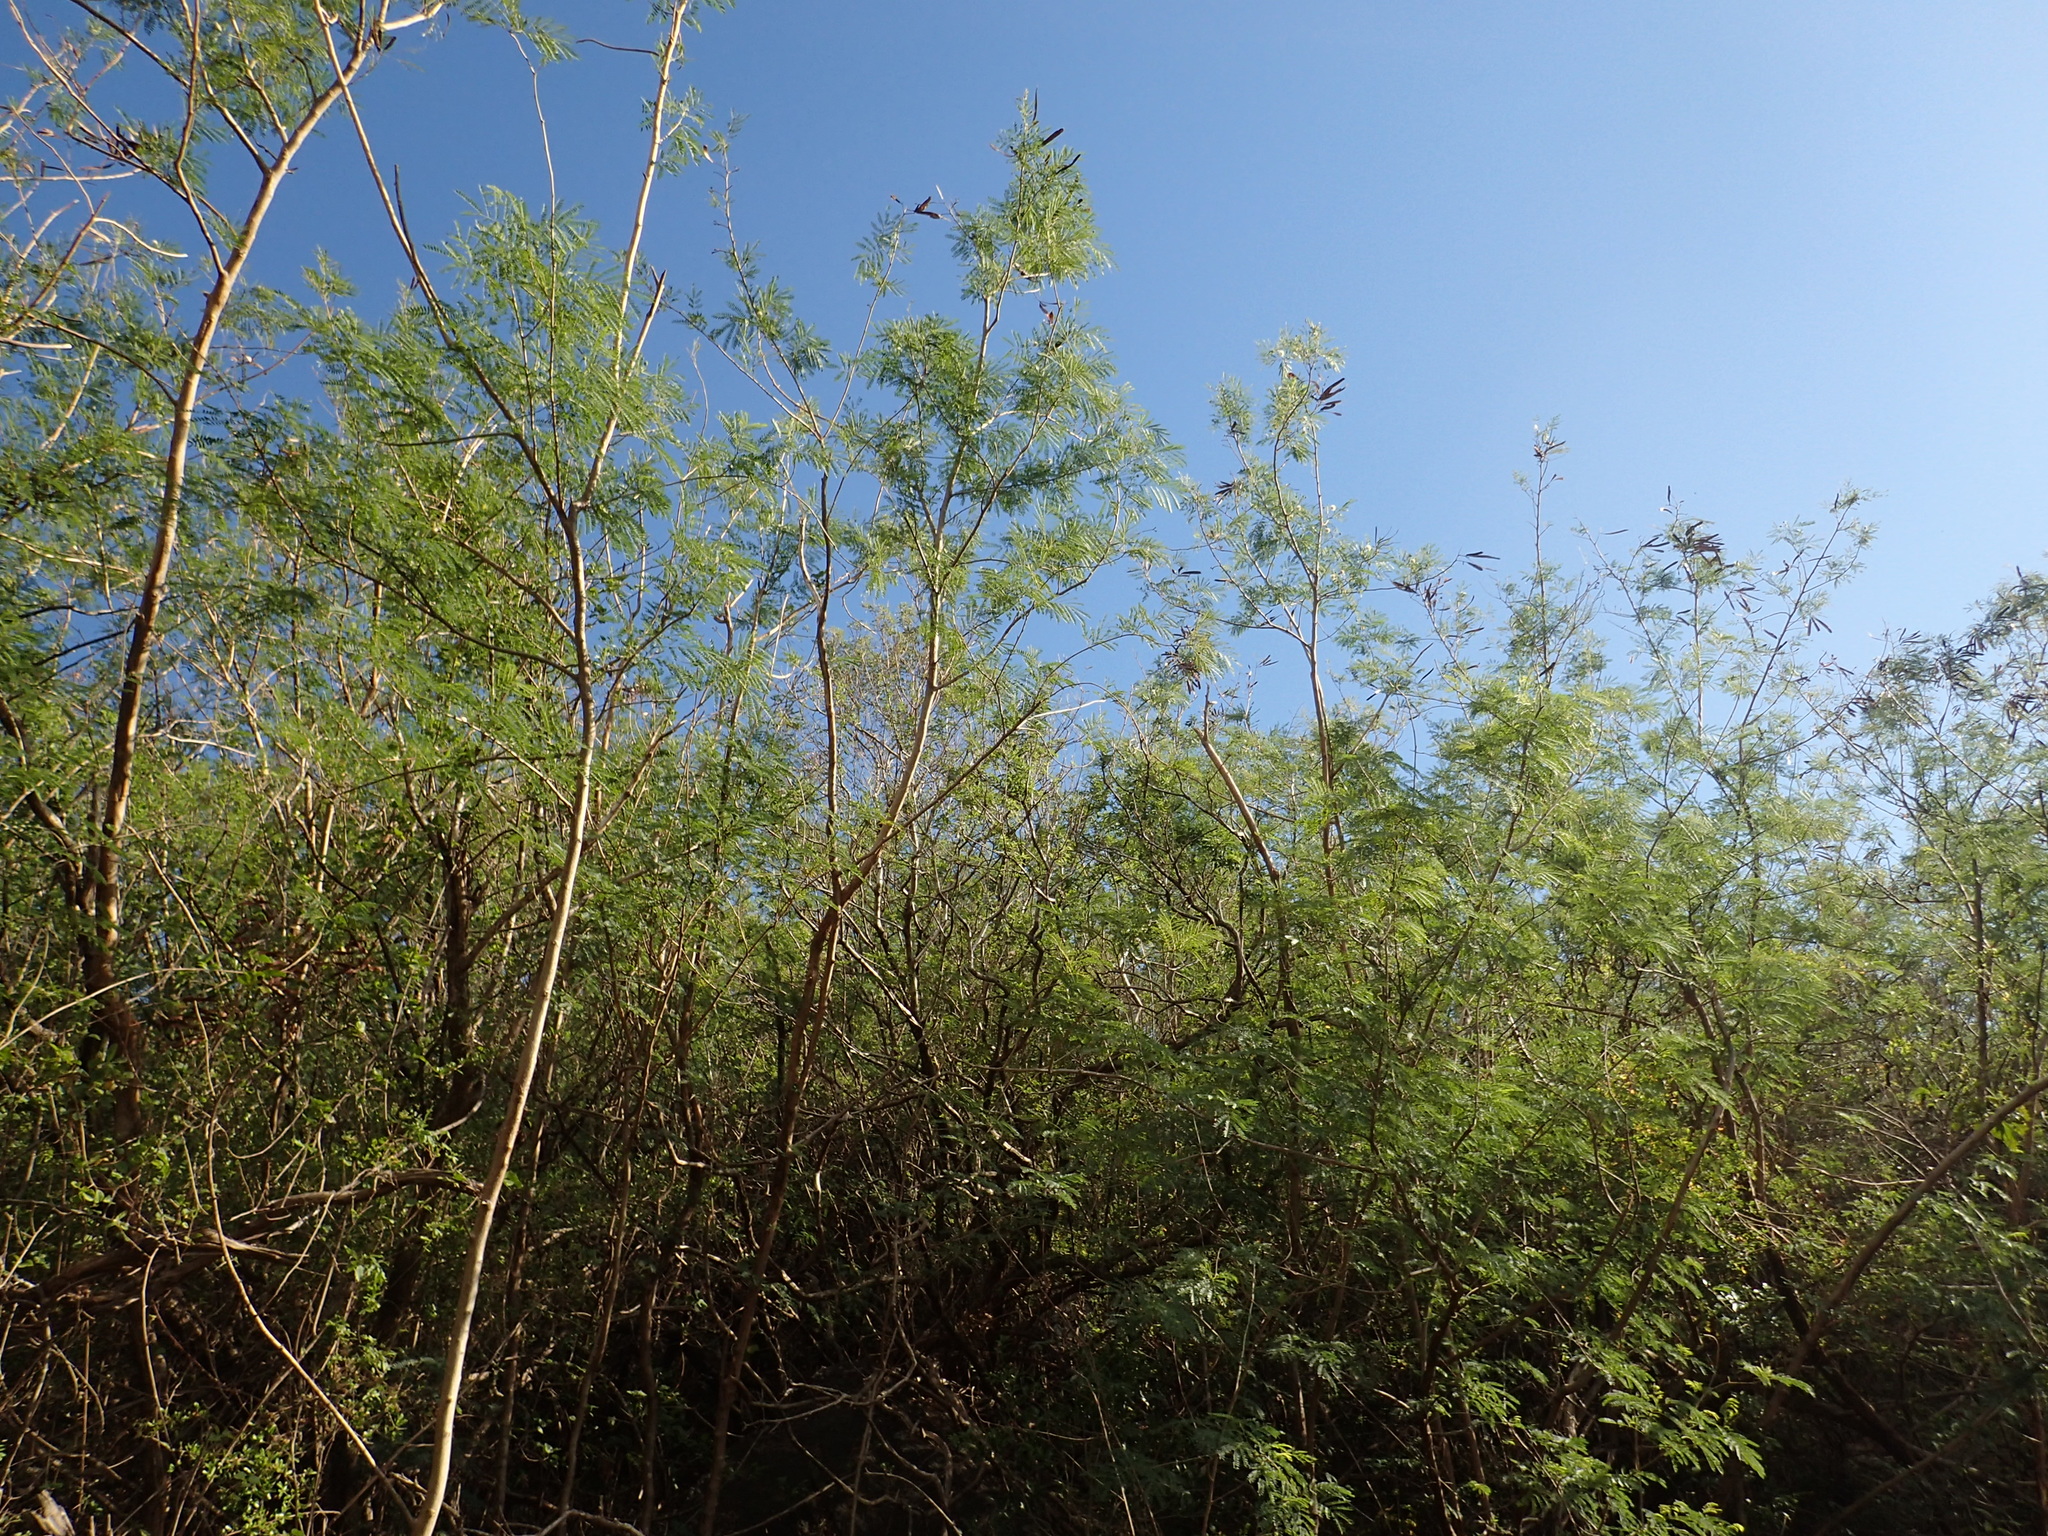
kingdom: Plantae
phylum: Tracheophyta
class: Magnoliopsida
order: Fabales
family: Fabaceae
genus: Leucaena
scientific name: Leucaena leucocephala
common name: White leadtree
